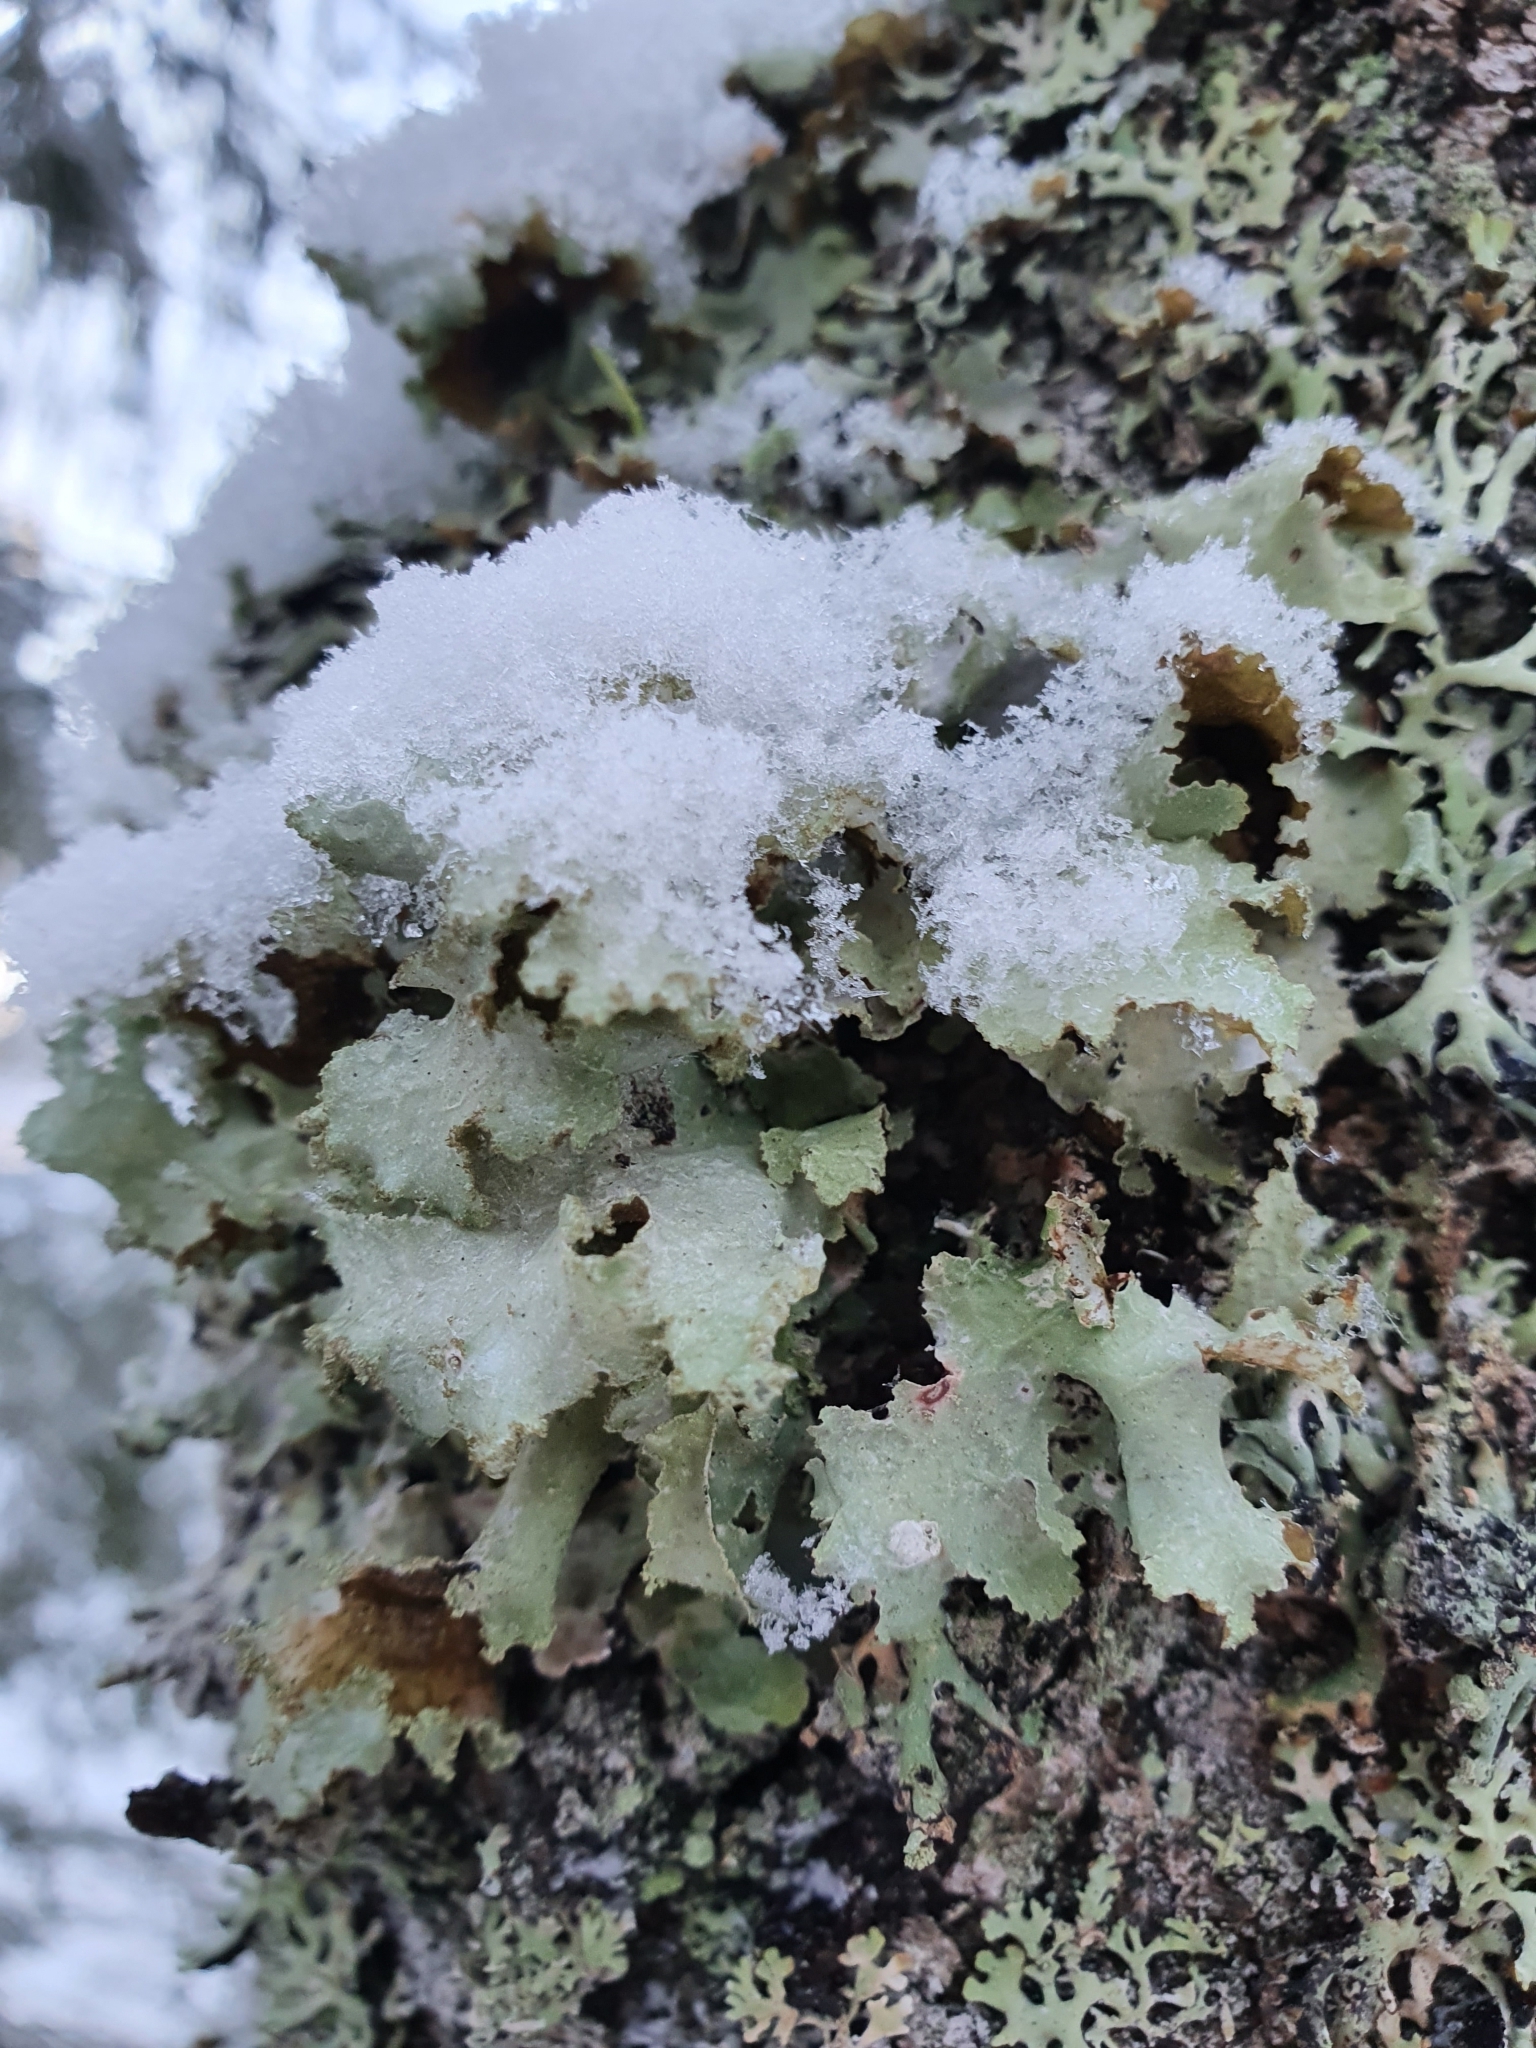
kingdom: Fungi
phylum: Ascomycota
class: Lecanoromycetes
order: Lecanorales
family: Parmeliaceae
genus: Platismatia
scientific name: Platismatia glauca
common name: Varied rag lichen
